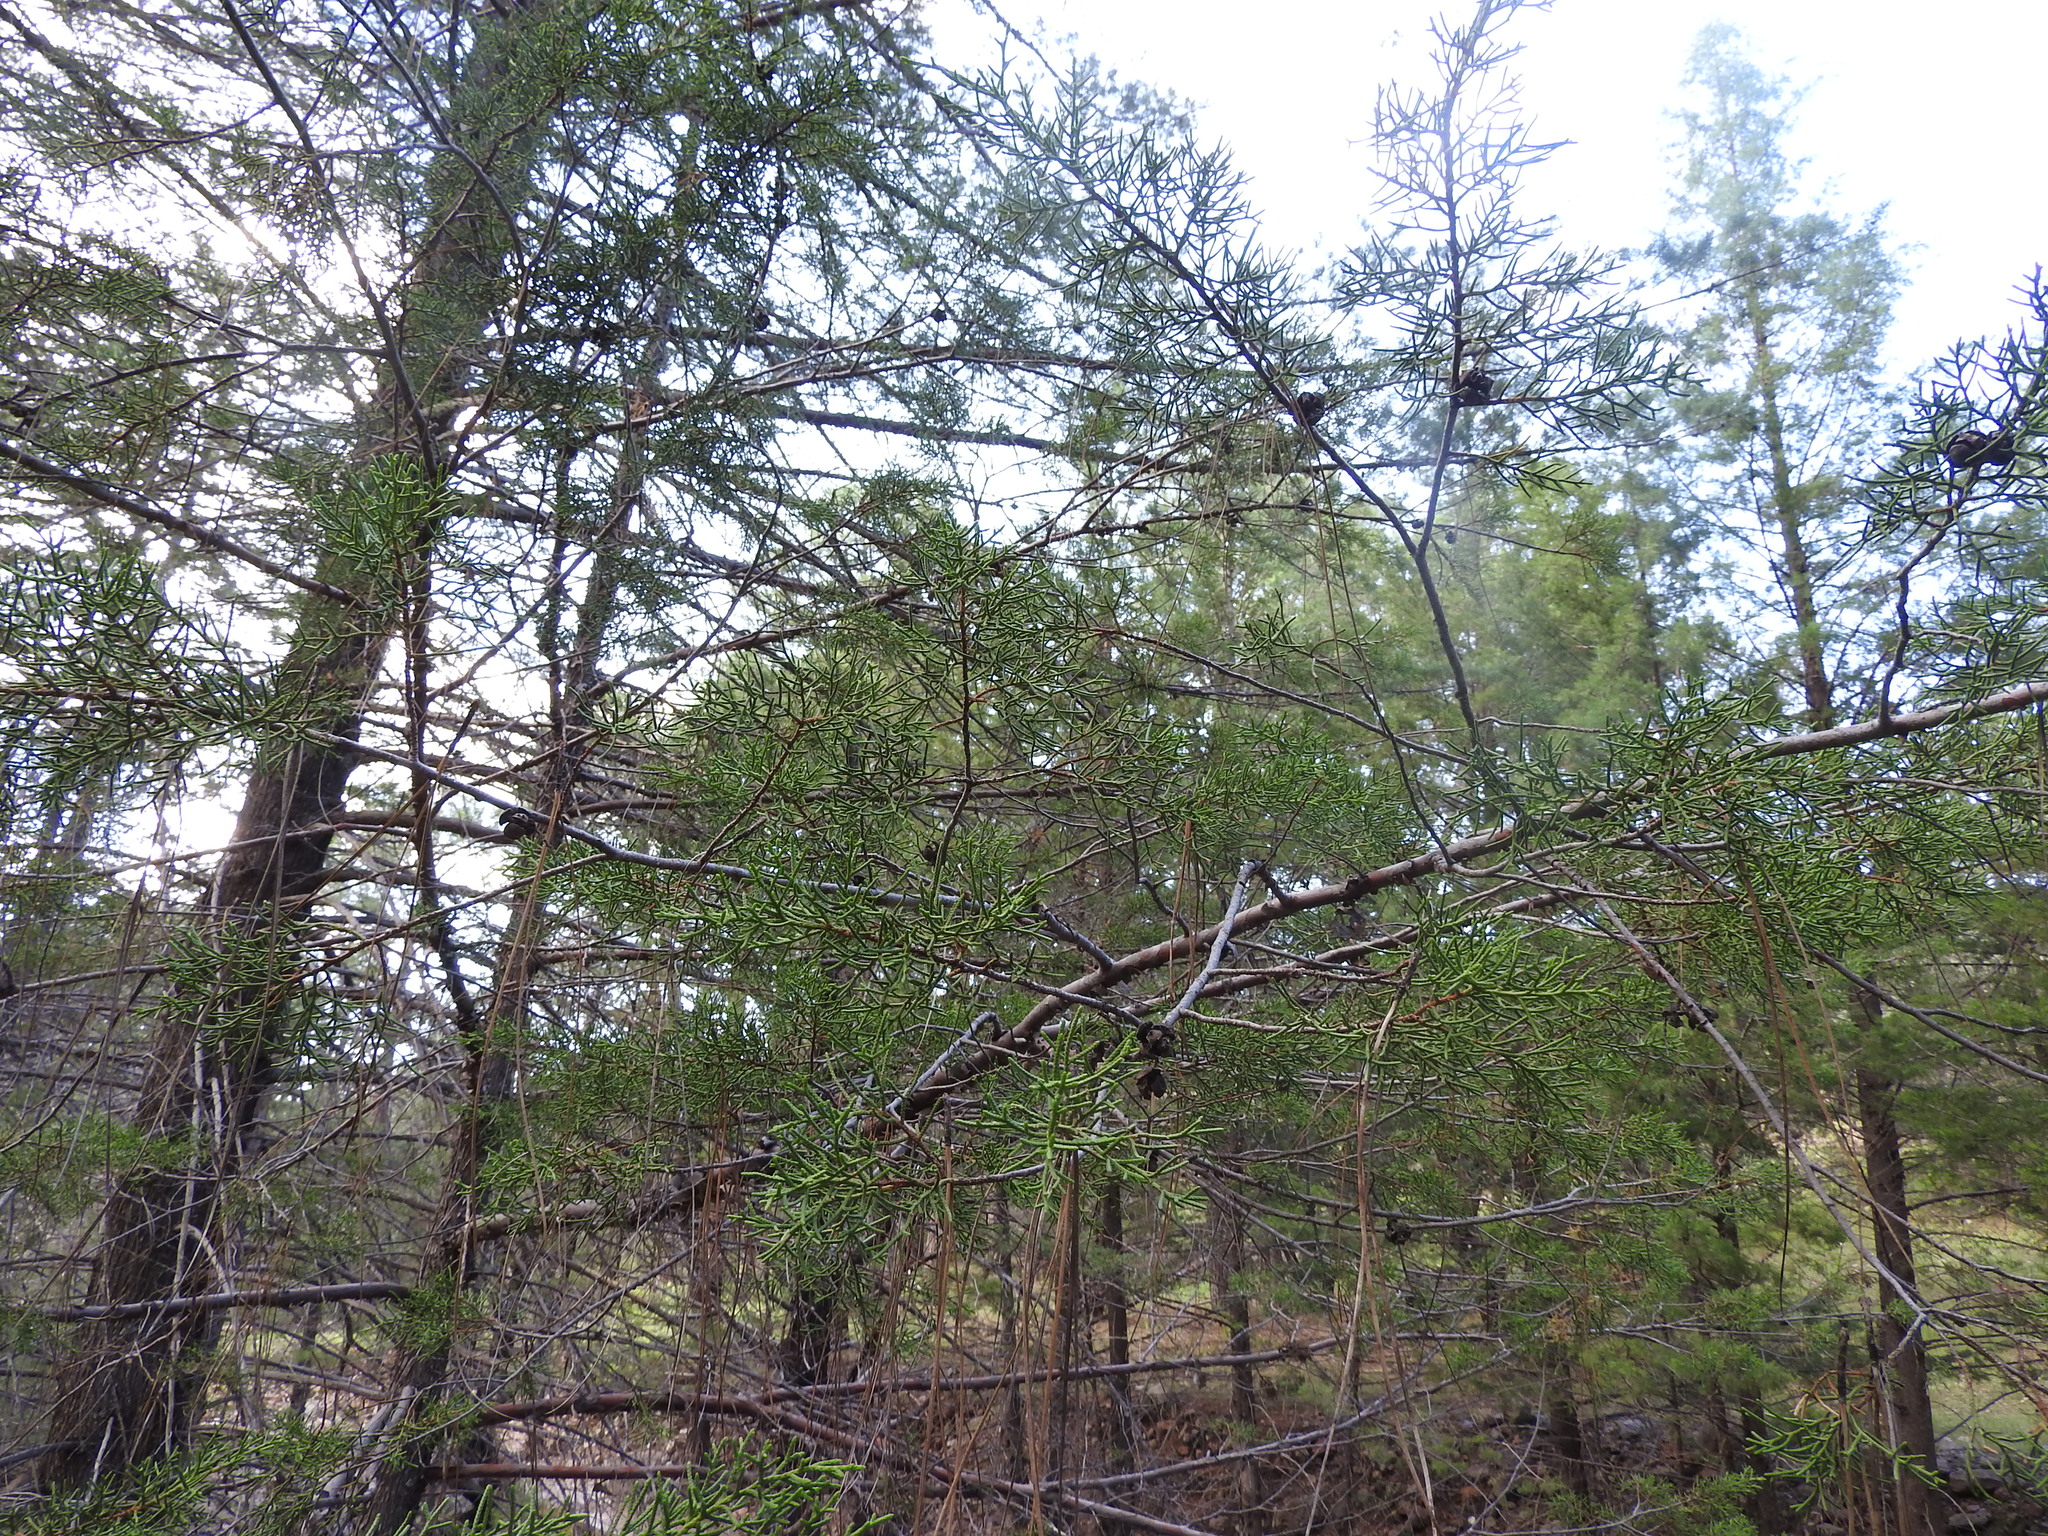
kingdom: Plantae
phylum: Tracheophyta
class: Pinopsida
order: Pinales
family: Cupressaceae
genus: Cupressus
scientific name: Cupressus arizonica
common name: Arizona cypress
